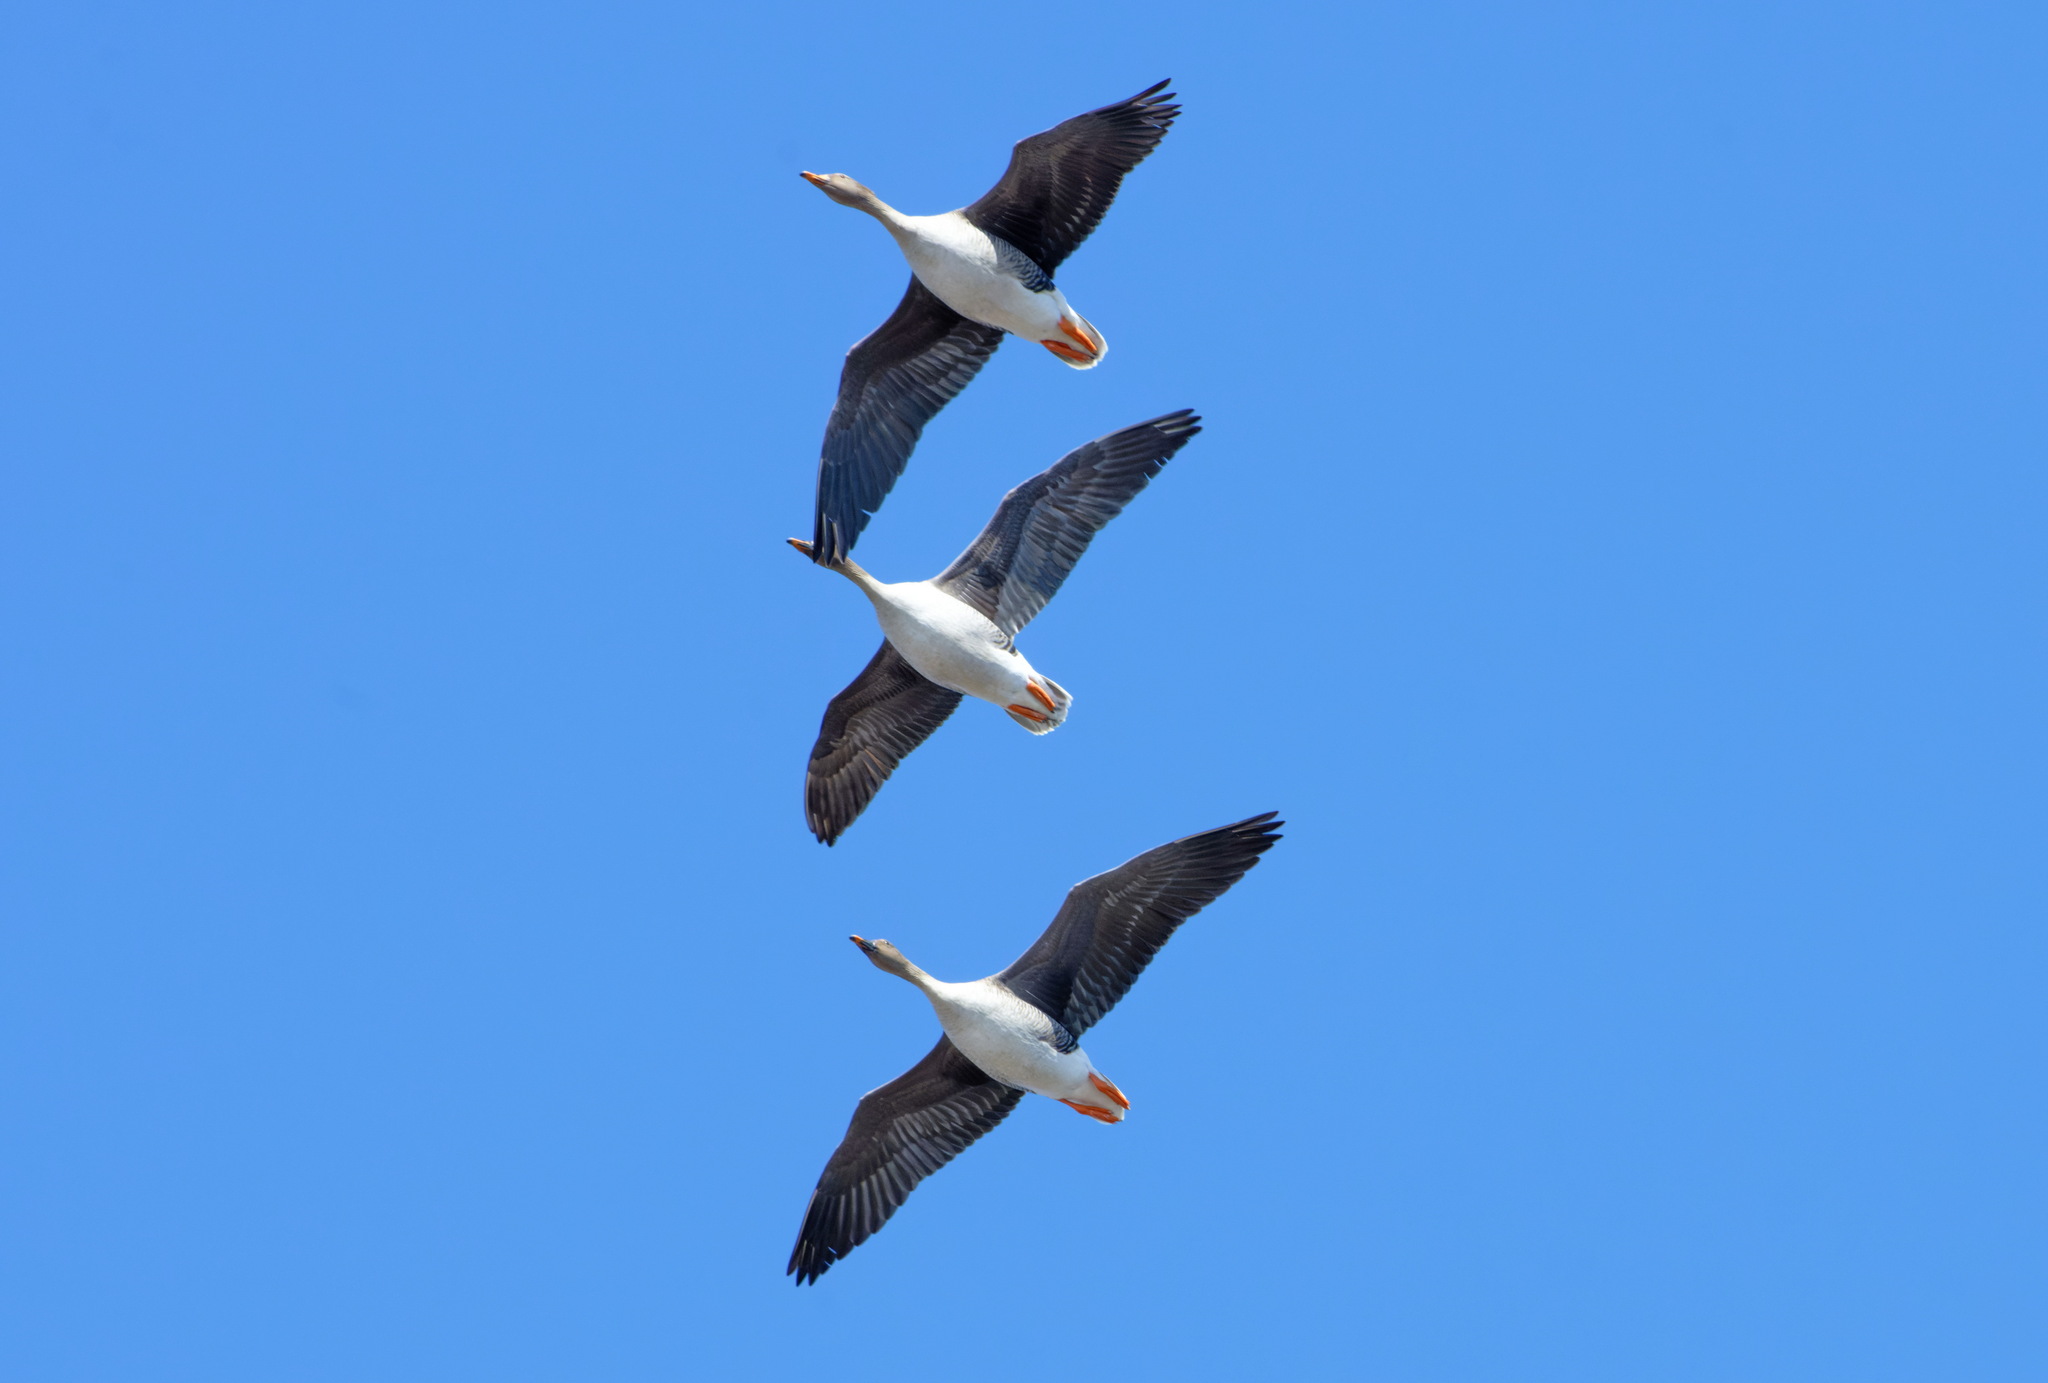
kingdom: Animalia
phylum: Chordata
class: Aves
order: Anseriformes
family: Anatidae
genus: Anser
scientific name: Anser fabalis
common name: Bean goose
